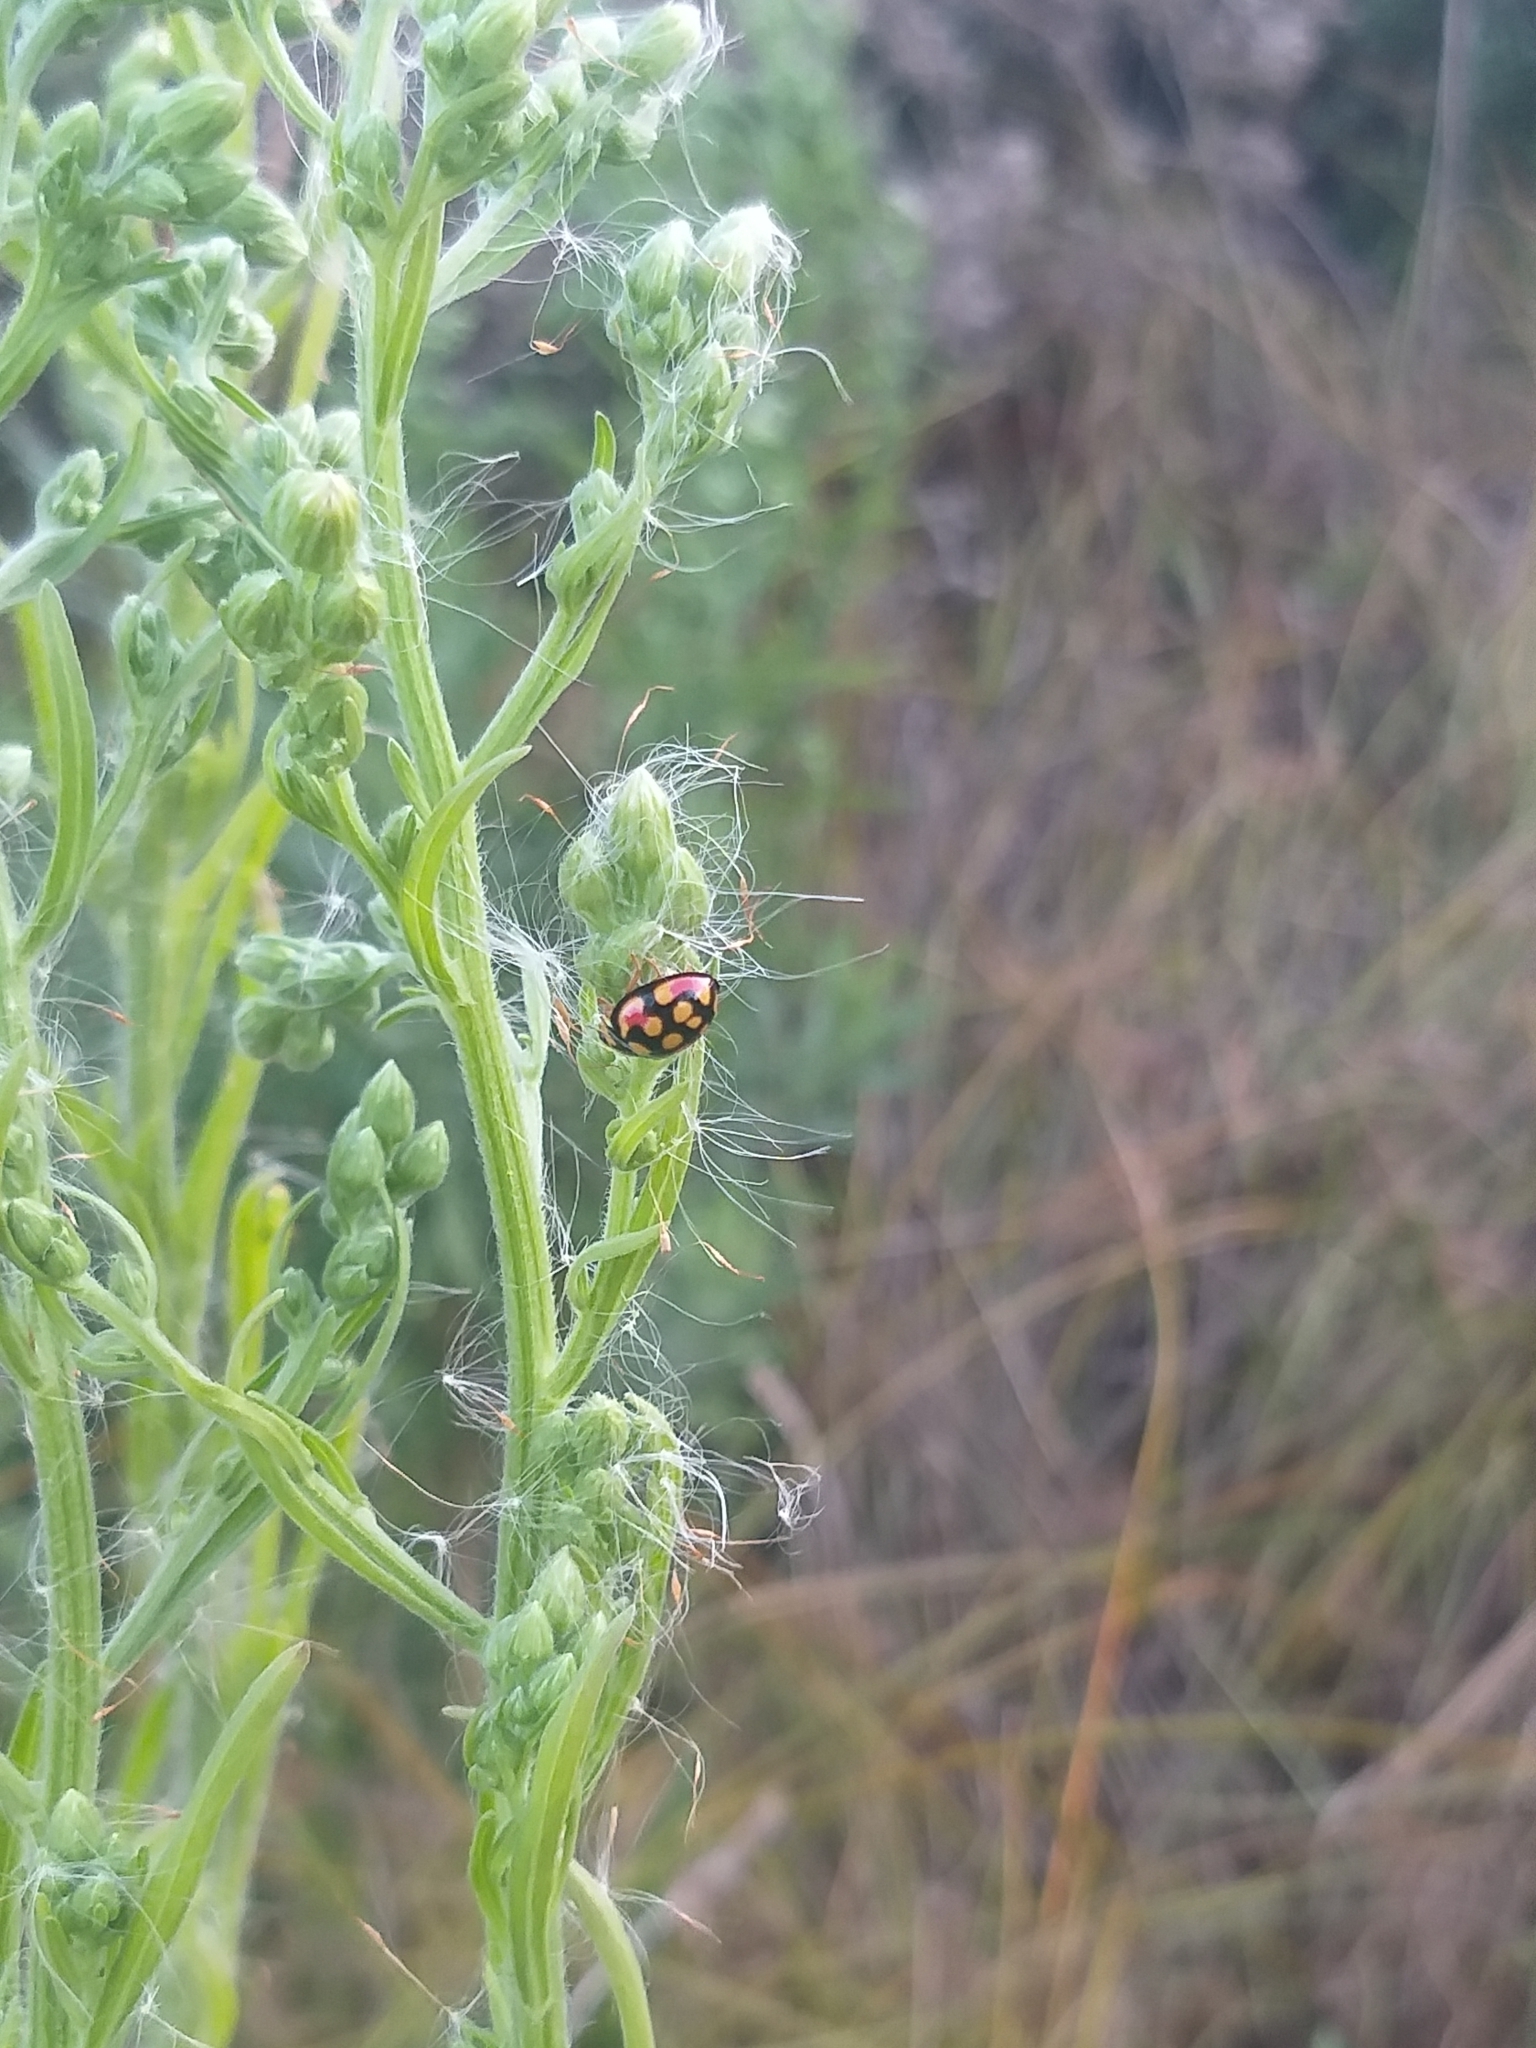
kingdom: Animalia
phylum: Arthropoda
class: Insecta
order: Coleoptera
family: Coccinellidae
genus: Cheilomenes
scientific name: Cheilomenes sulphurea
